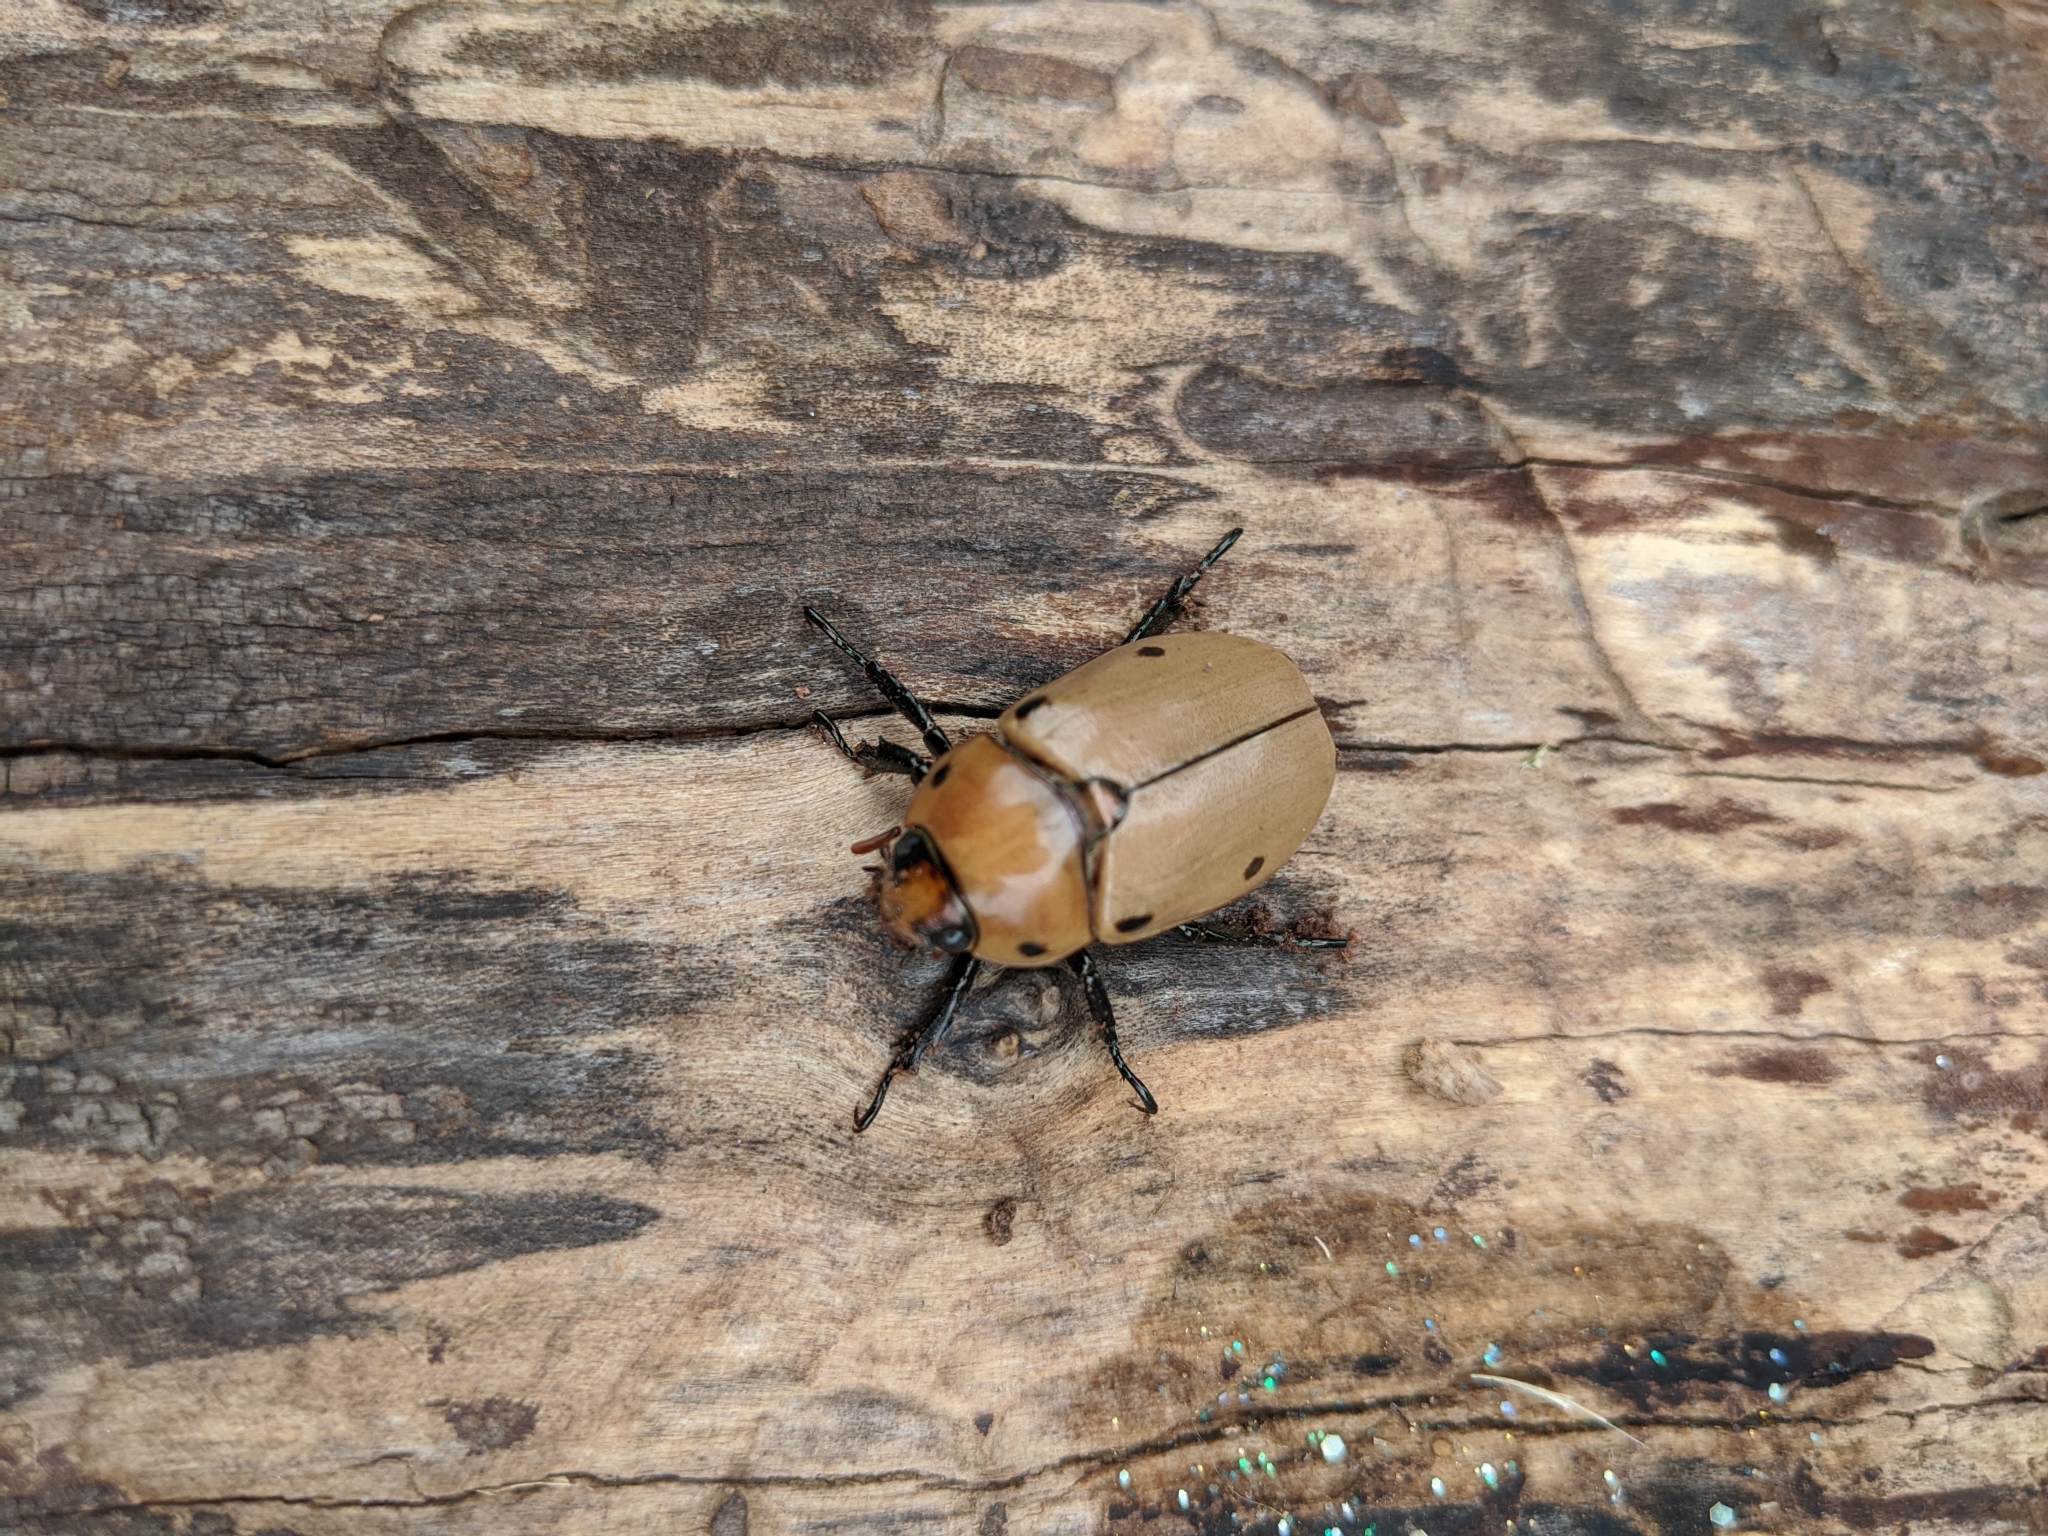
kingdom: Animalia
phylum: Arthropoda
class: Insecta
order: Coleoptera
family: Scarabaeidae
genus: Pelidnota
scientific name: Pelidnota punctata
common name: Grapevine beetle
